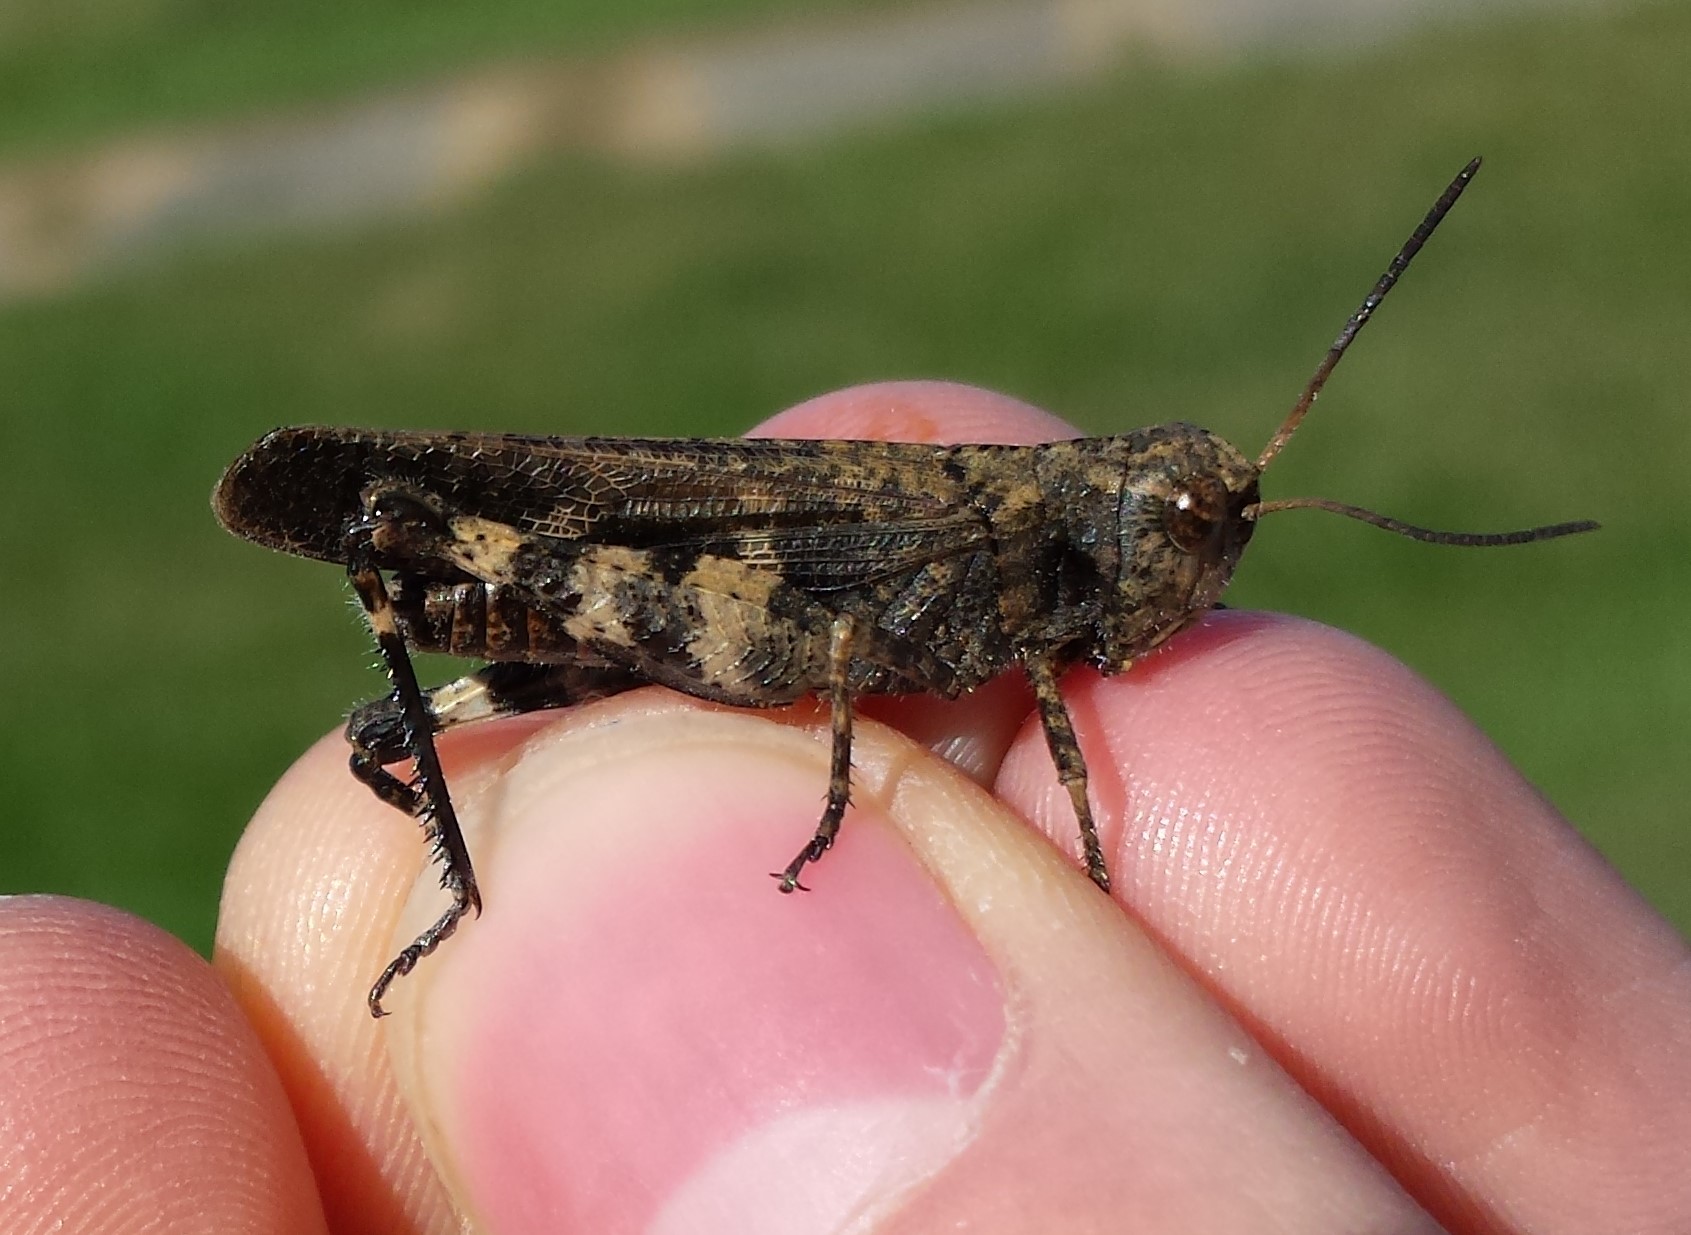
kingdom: Animalia
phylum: Arthropoda
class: Insecta
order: Orthoptera
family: Acrididae
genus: Encoptolophus
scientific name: Encoptolophus sordidus
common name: Dusky grasshopper
